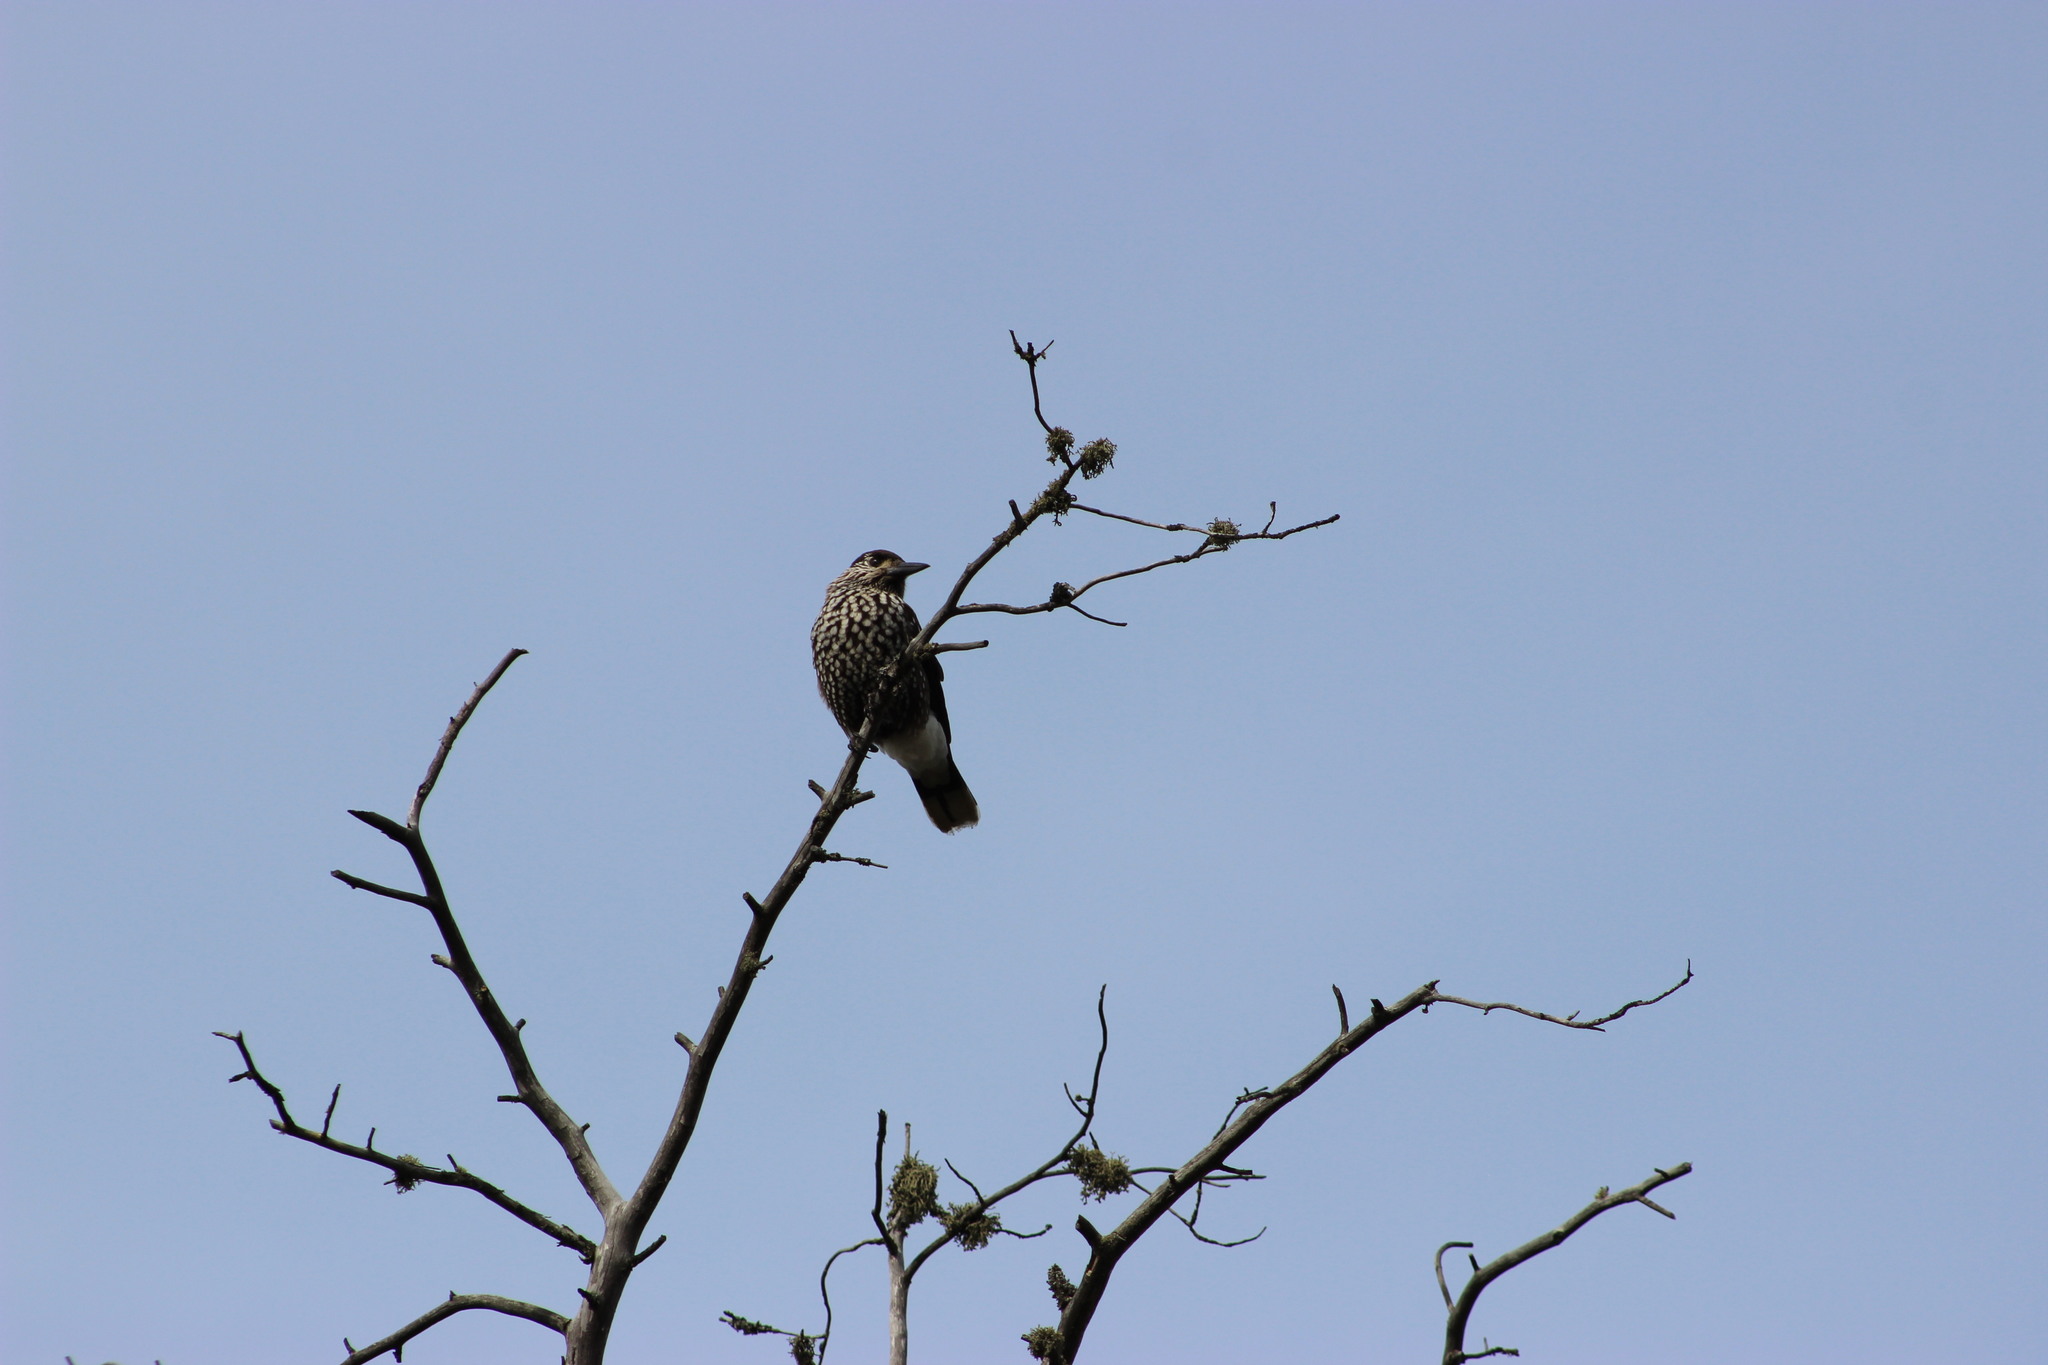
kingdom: Animalia
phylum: Chordata
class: Aves
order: Passeriformes
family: Corvidae
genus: Nucifraga
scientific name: Nucifraga caryocatactes
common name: Spotted nutcracker
